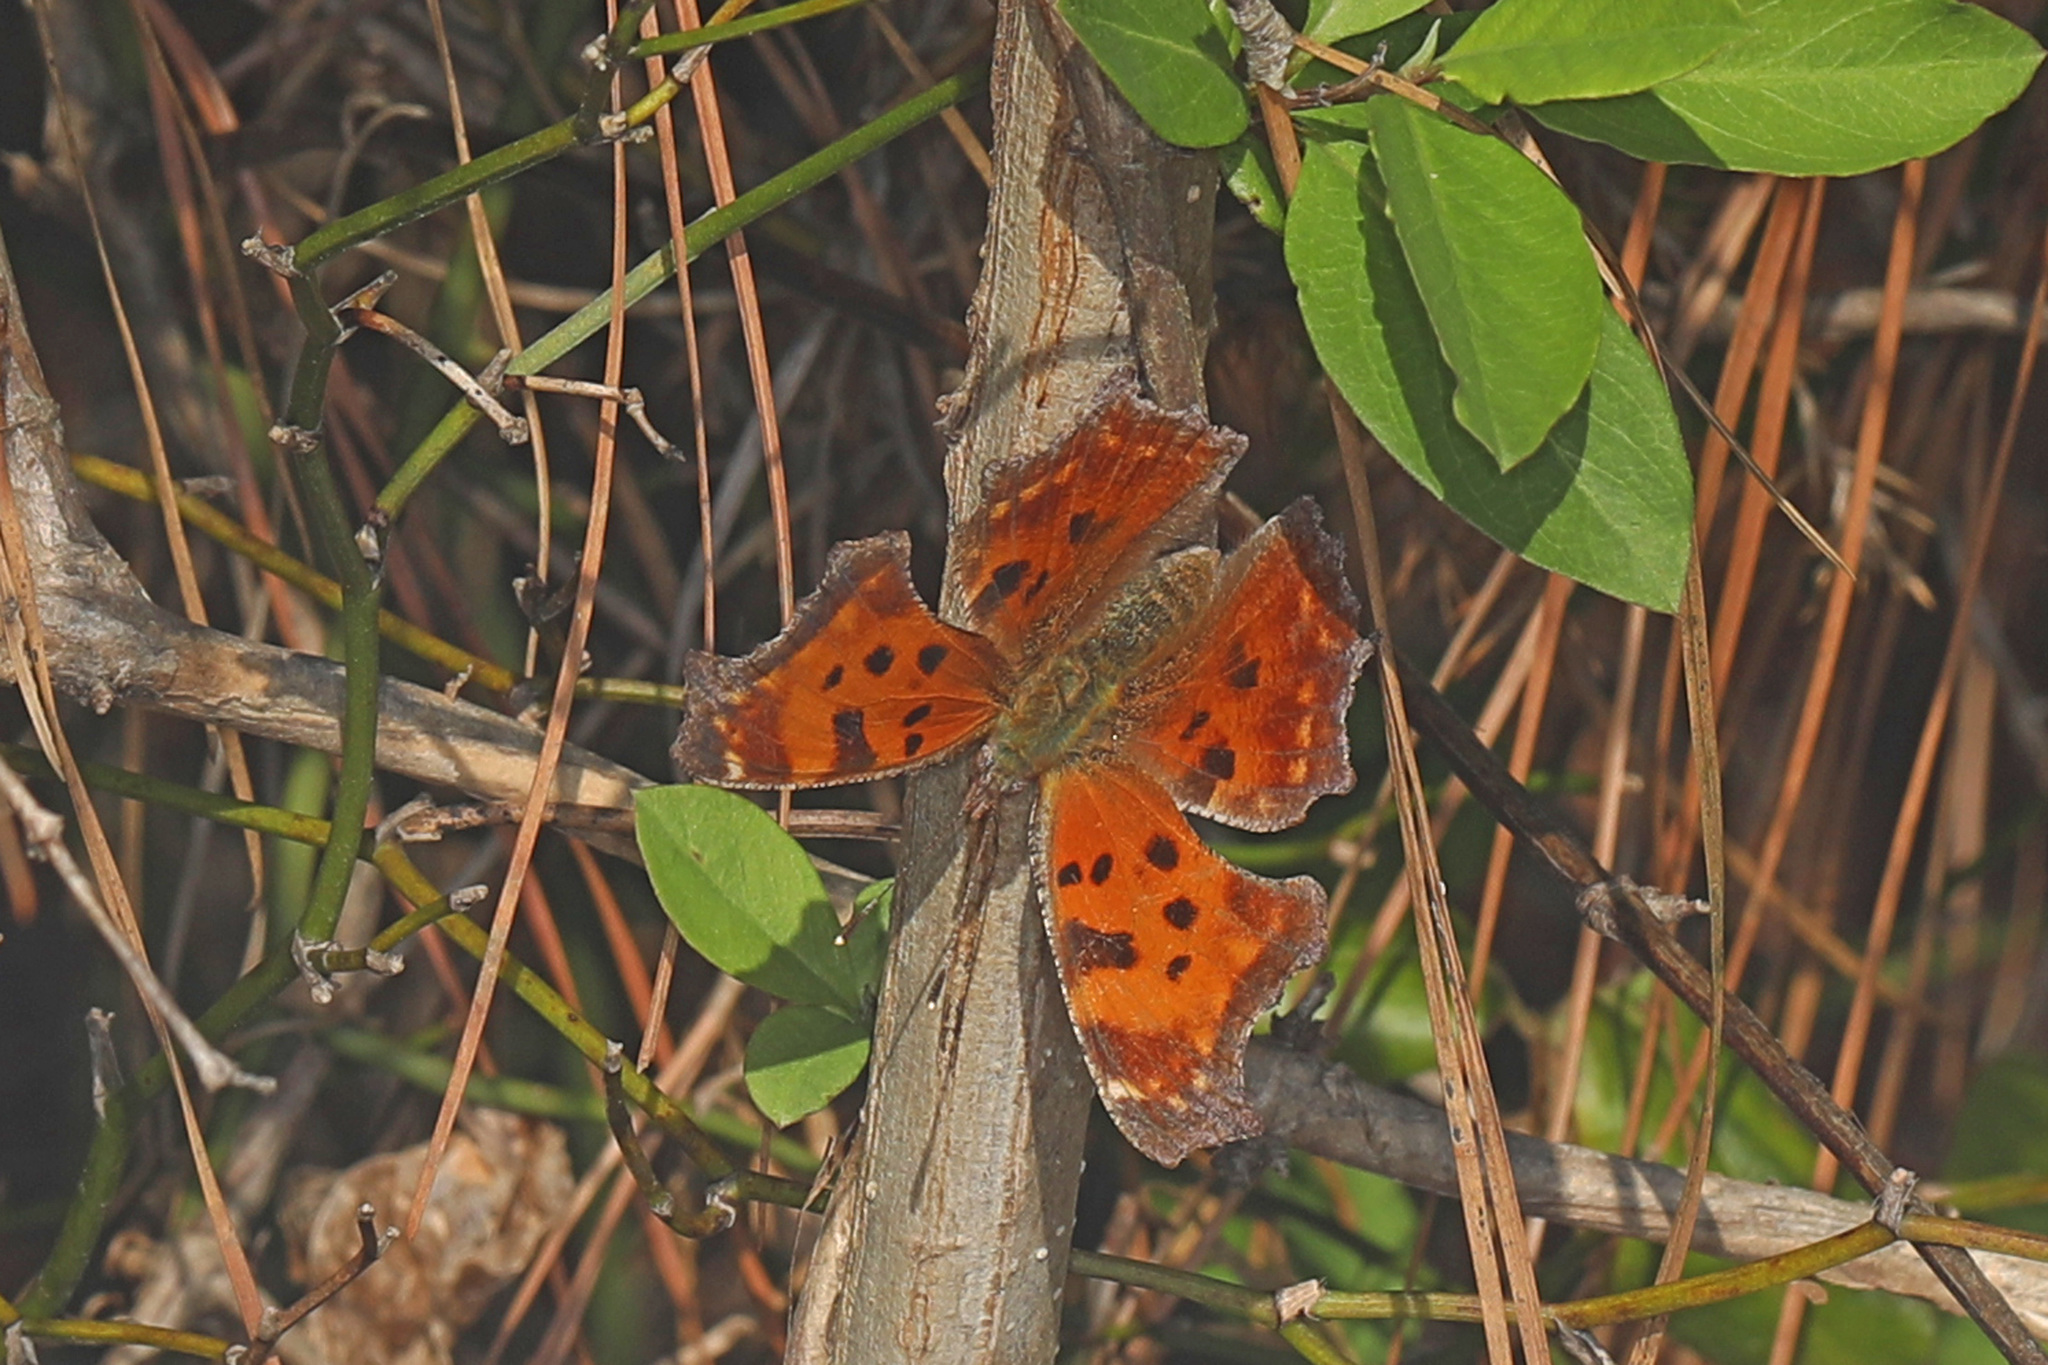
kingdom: Animalia
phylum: Arthropoda
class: Insecta
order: Lepidoptera
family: Nymphalidae
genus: Polygonia
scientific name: Polygonia comma
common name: Eastern comma
